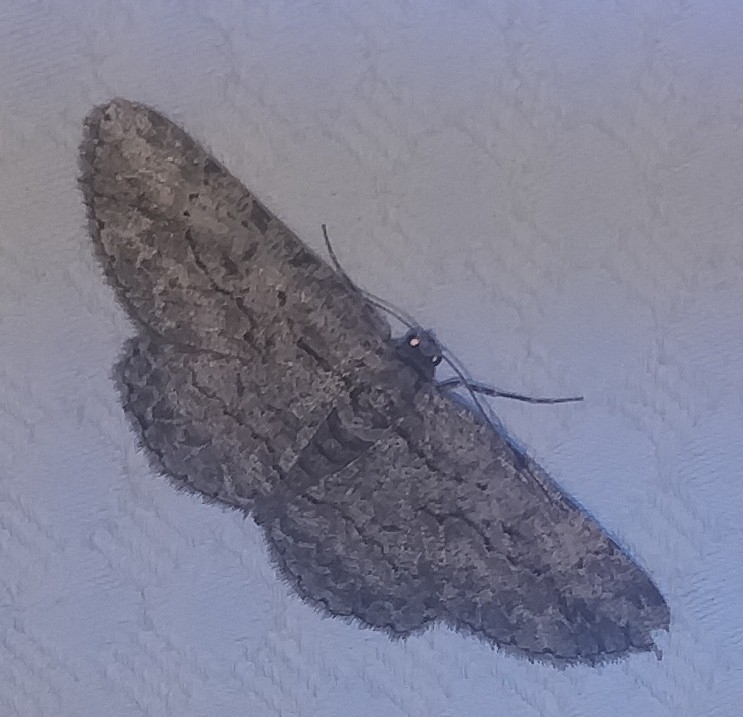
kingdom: Animalia
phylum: Arthropoda
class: Insecta
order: Lepidoptera
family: Geometridae
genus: Anavitrinella
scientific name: Anavitrinella pampinaria
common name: Common gray
